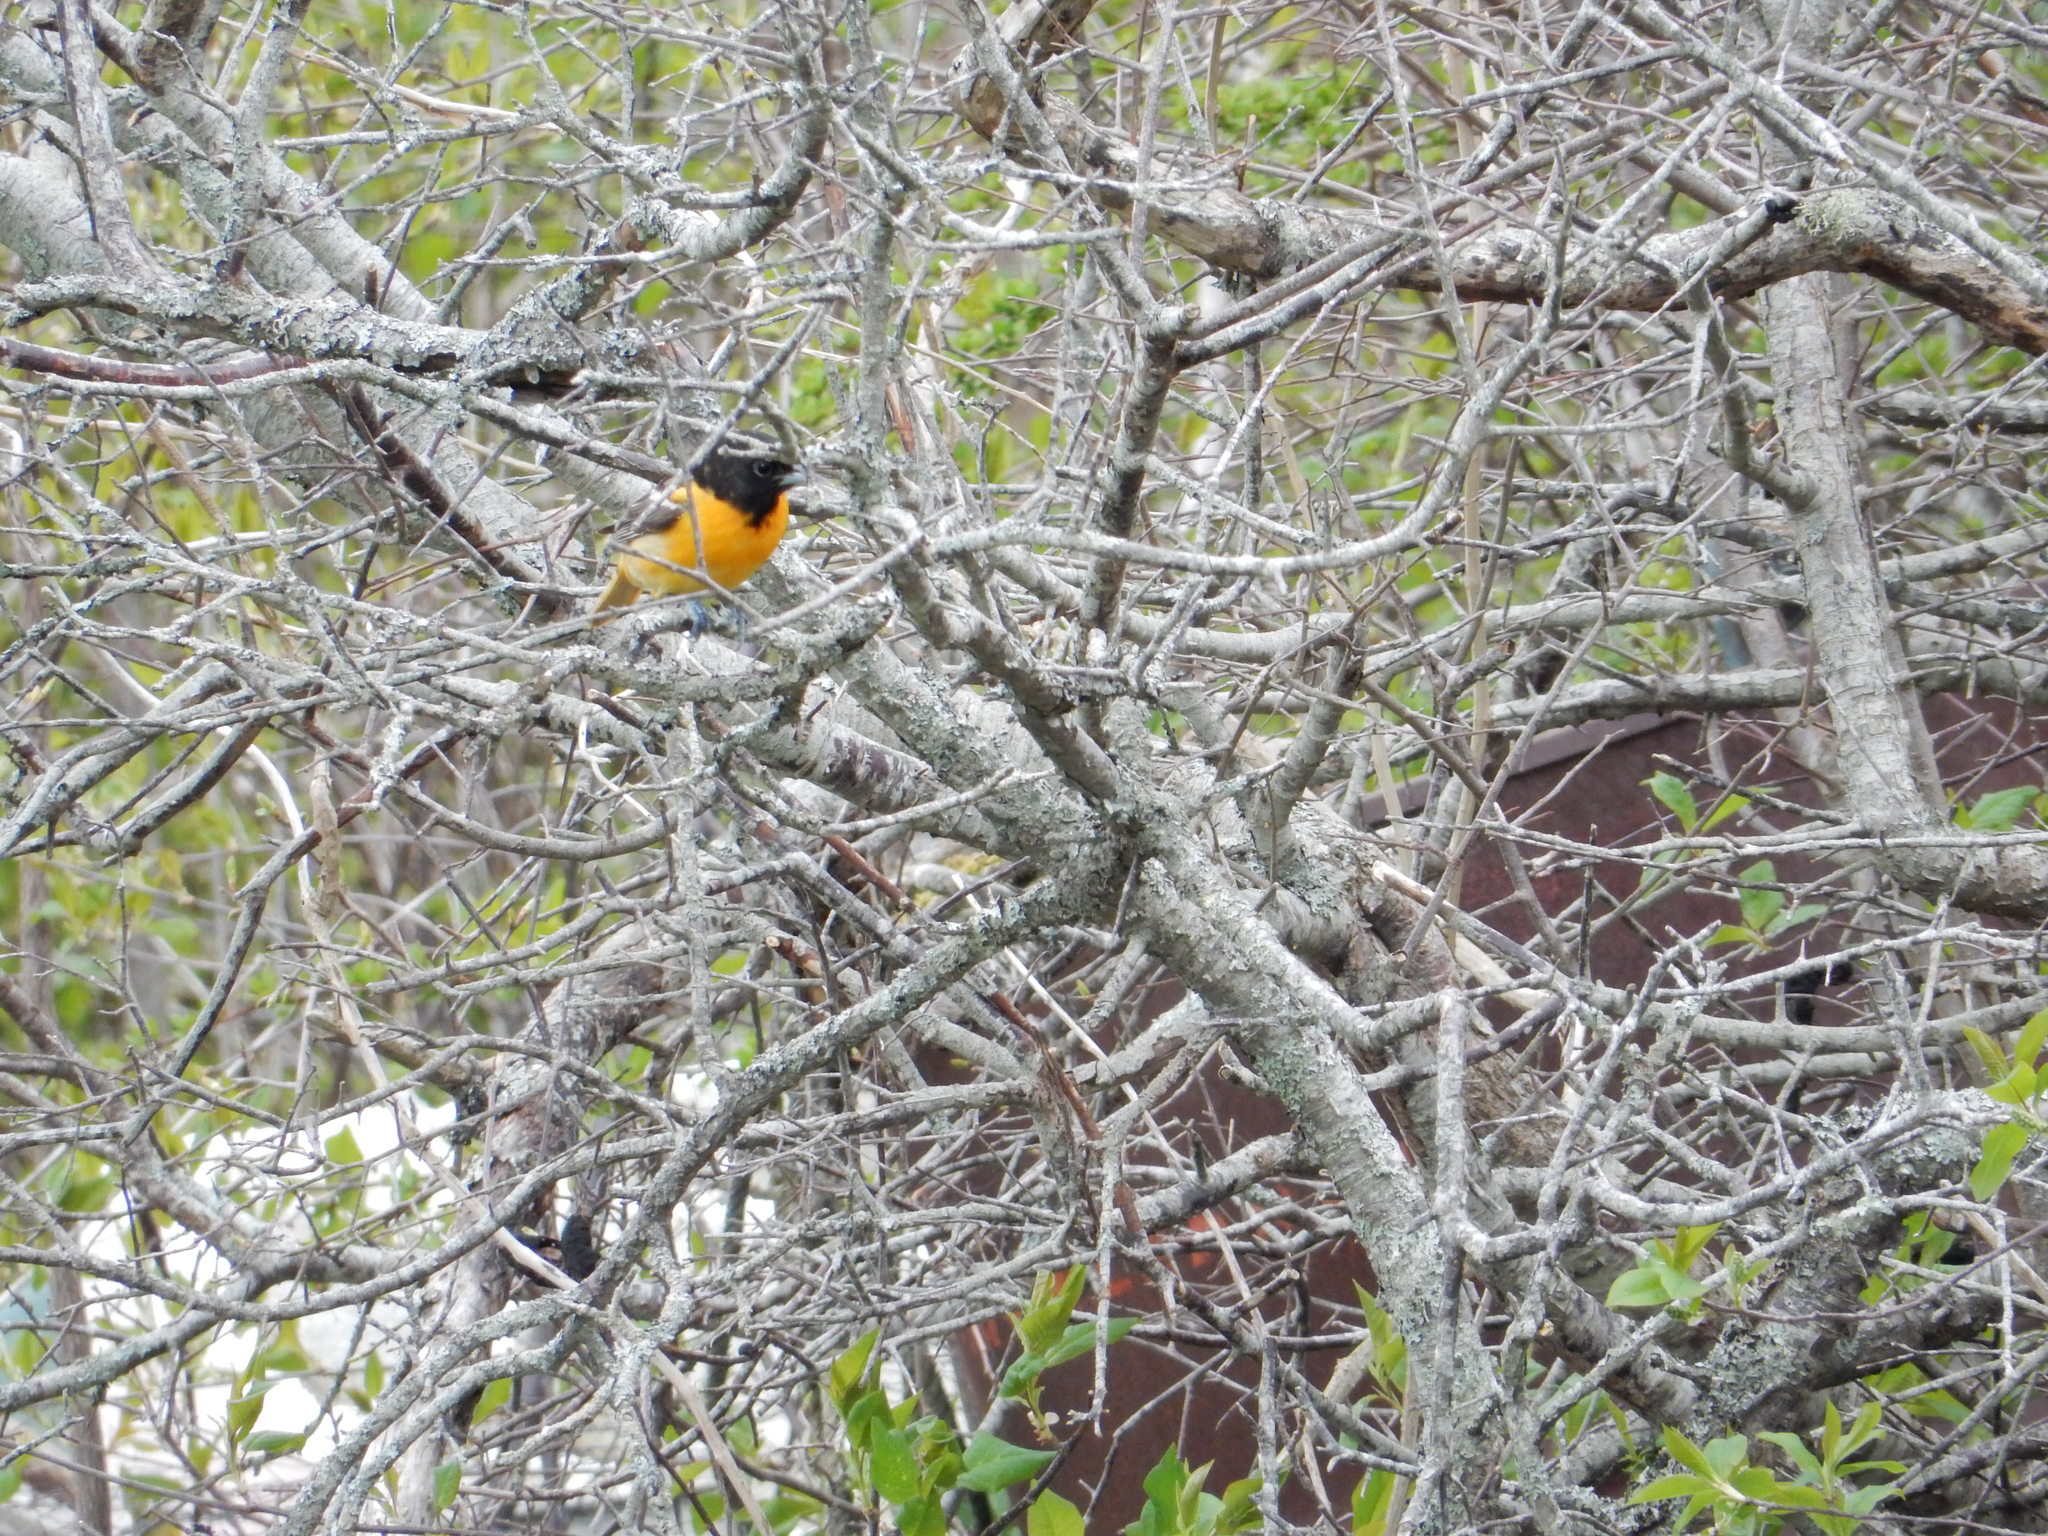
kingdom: Animalia
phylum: Chordata
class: Aves
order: Passeriformes
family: Icteridae
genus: Icterus
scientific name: Icterus galbula
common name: Baltimore oriole
